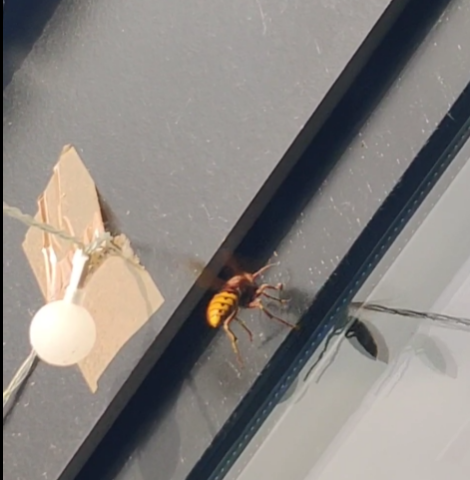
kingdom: Animalia
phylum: Arthropoda
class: Insecta
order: Hymenoptera
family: Vespidae
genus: Vespa
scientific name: Vespa crabro
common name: Hornet
